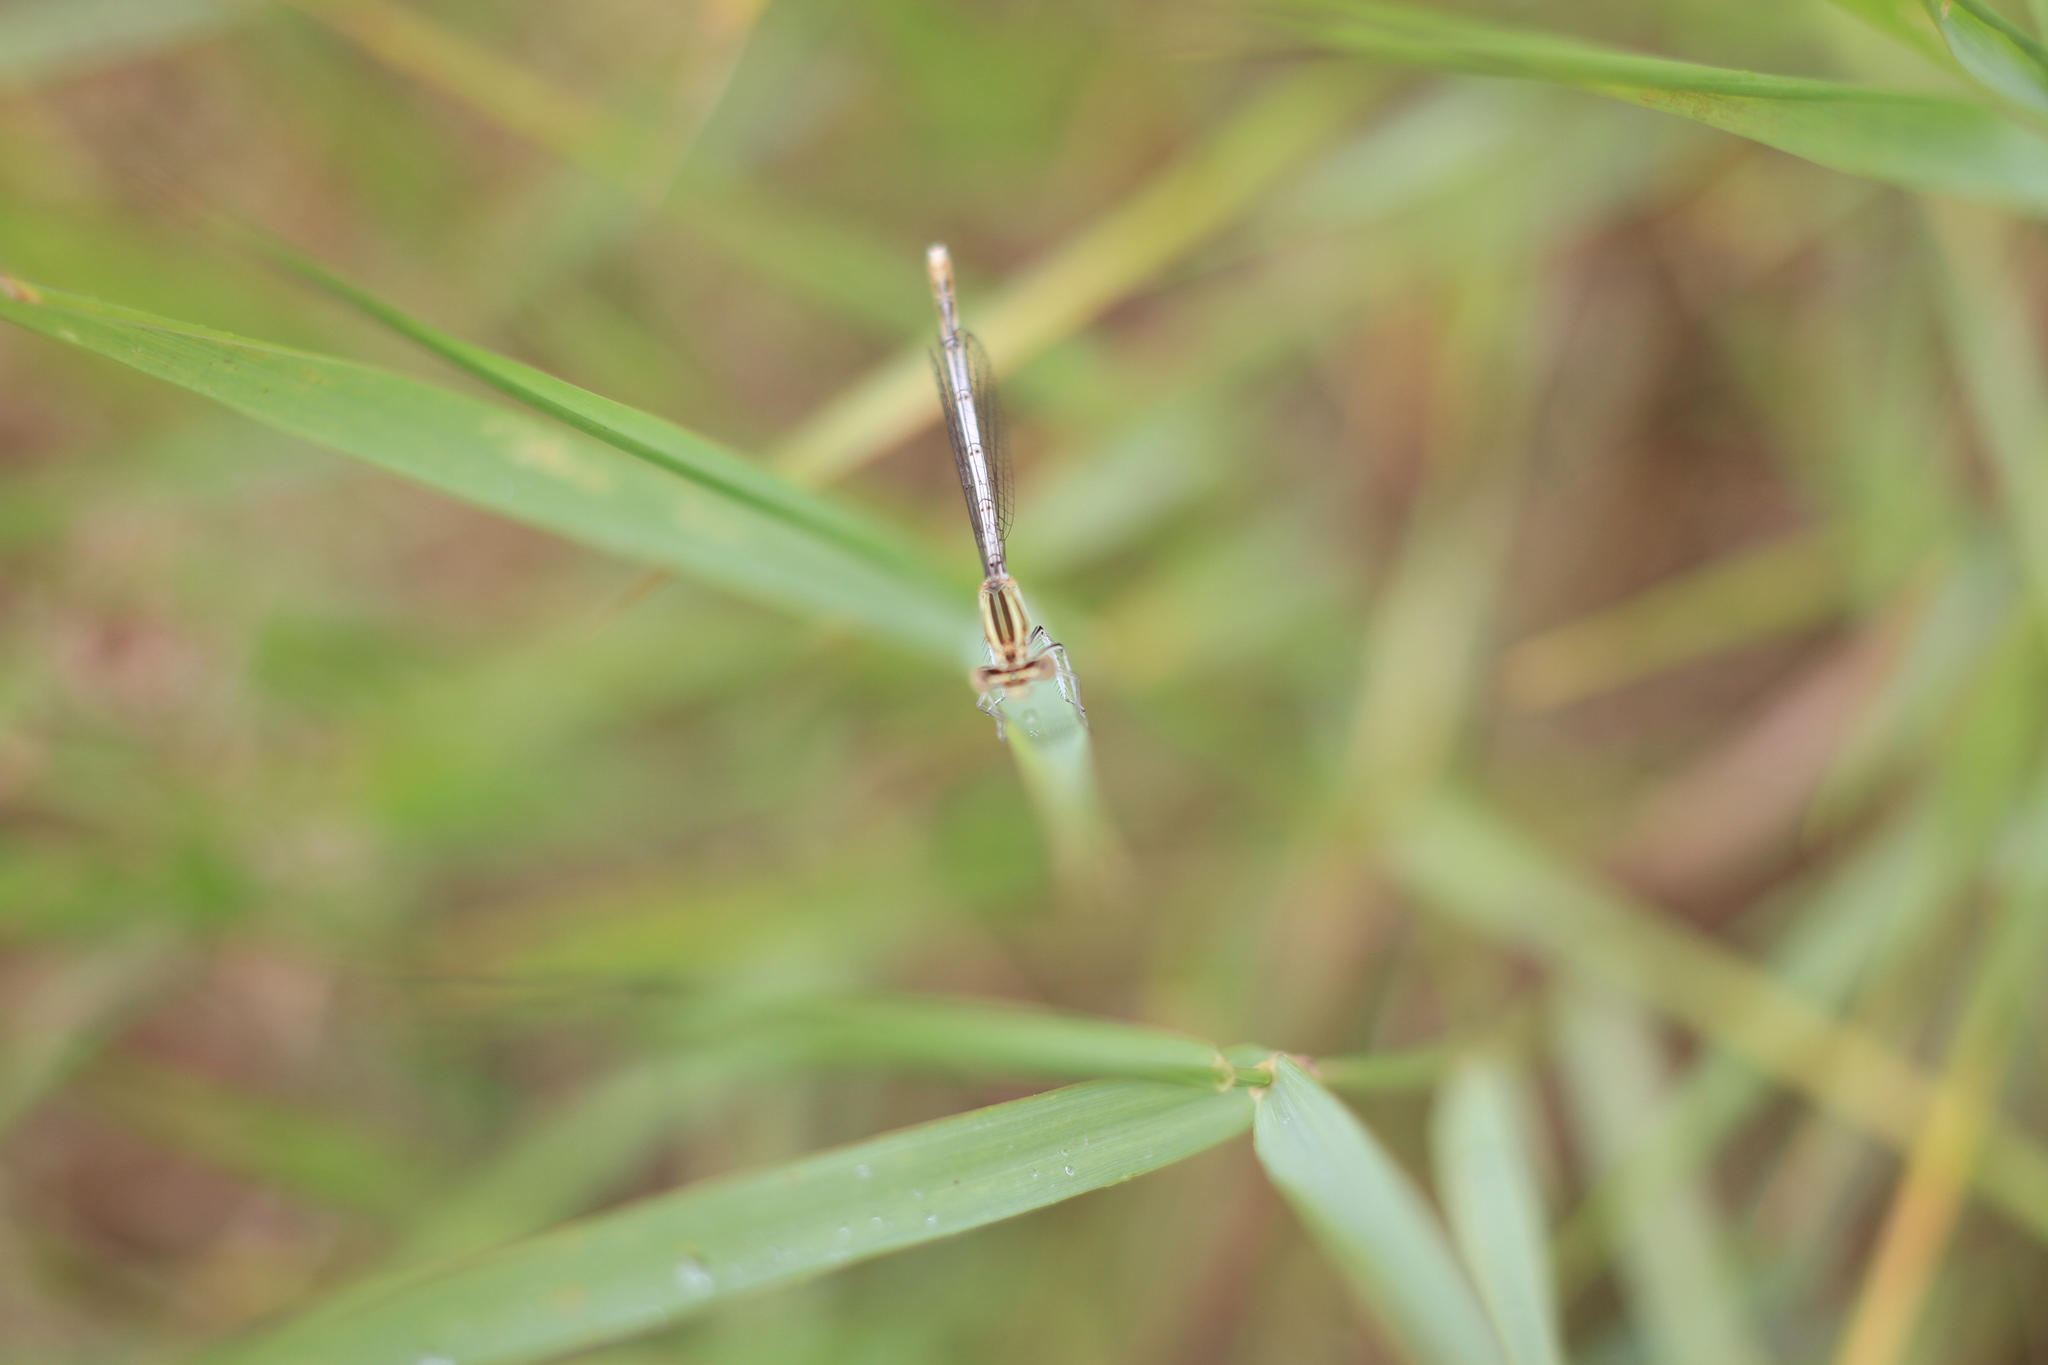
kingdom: Animalia
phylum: Arthropoda
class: Insecta
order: Odonata
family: Platycnemididae
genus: Platycnemis
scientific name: Platycnemis pennipes
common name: White-legged damselfly
